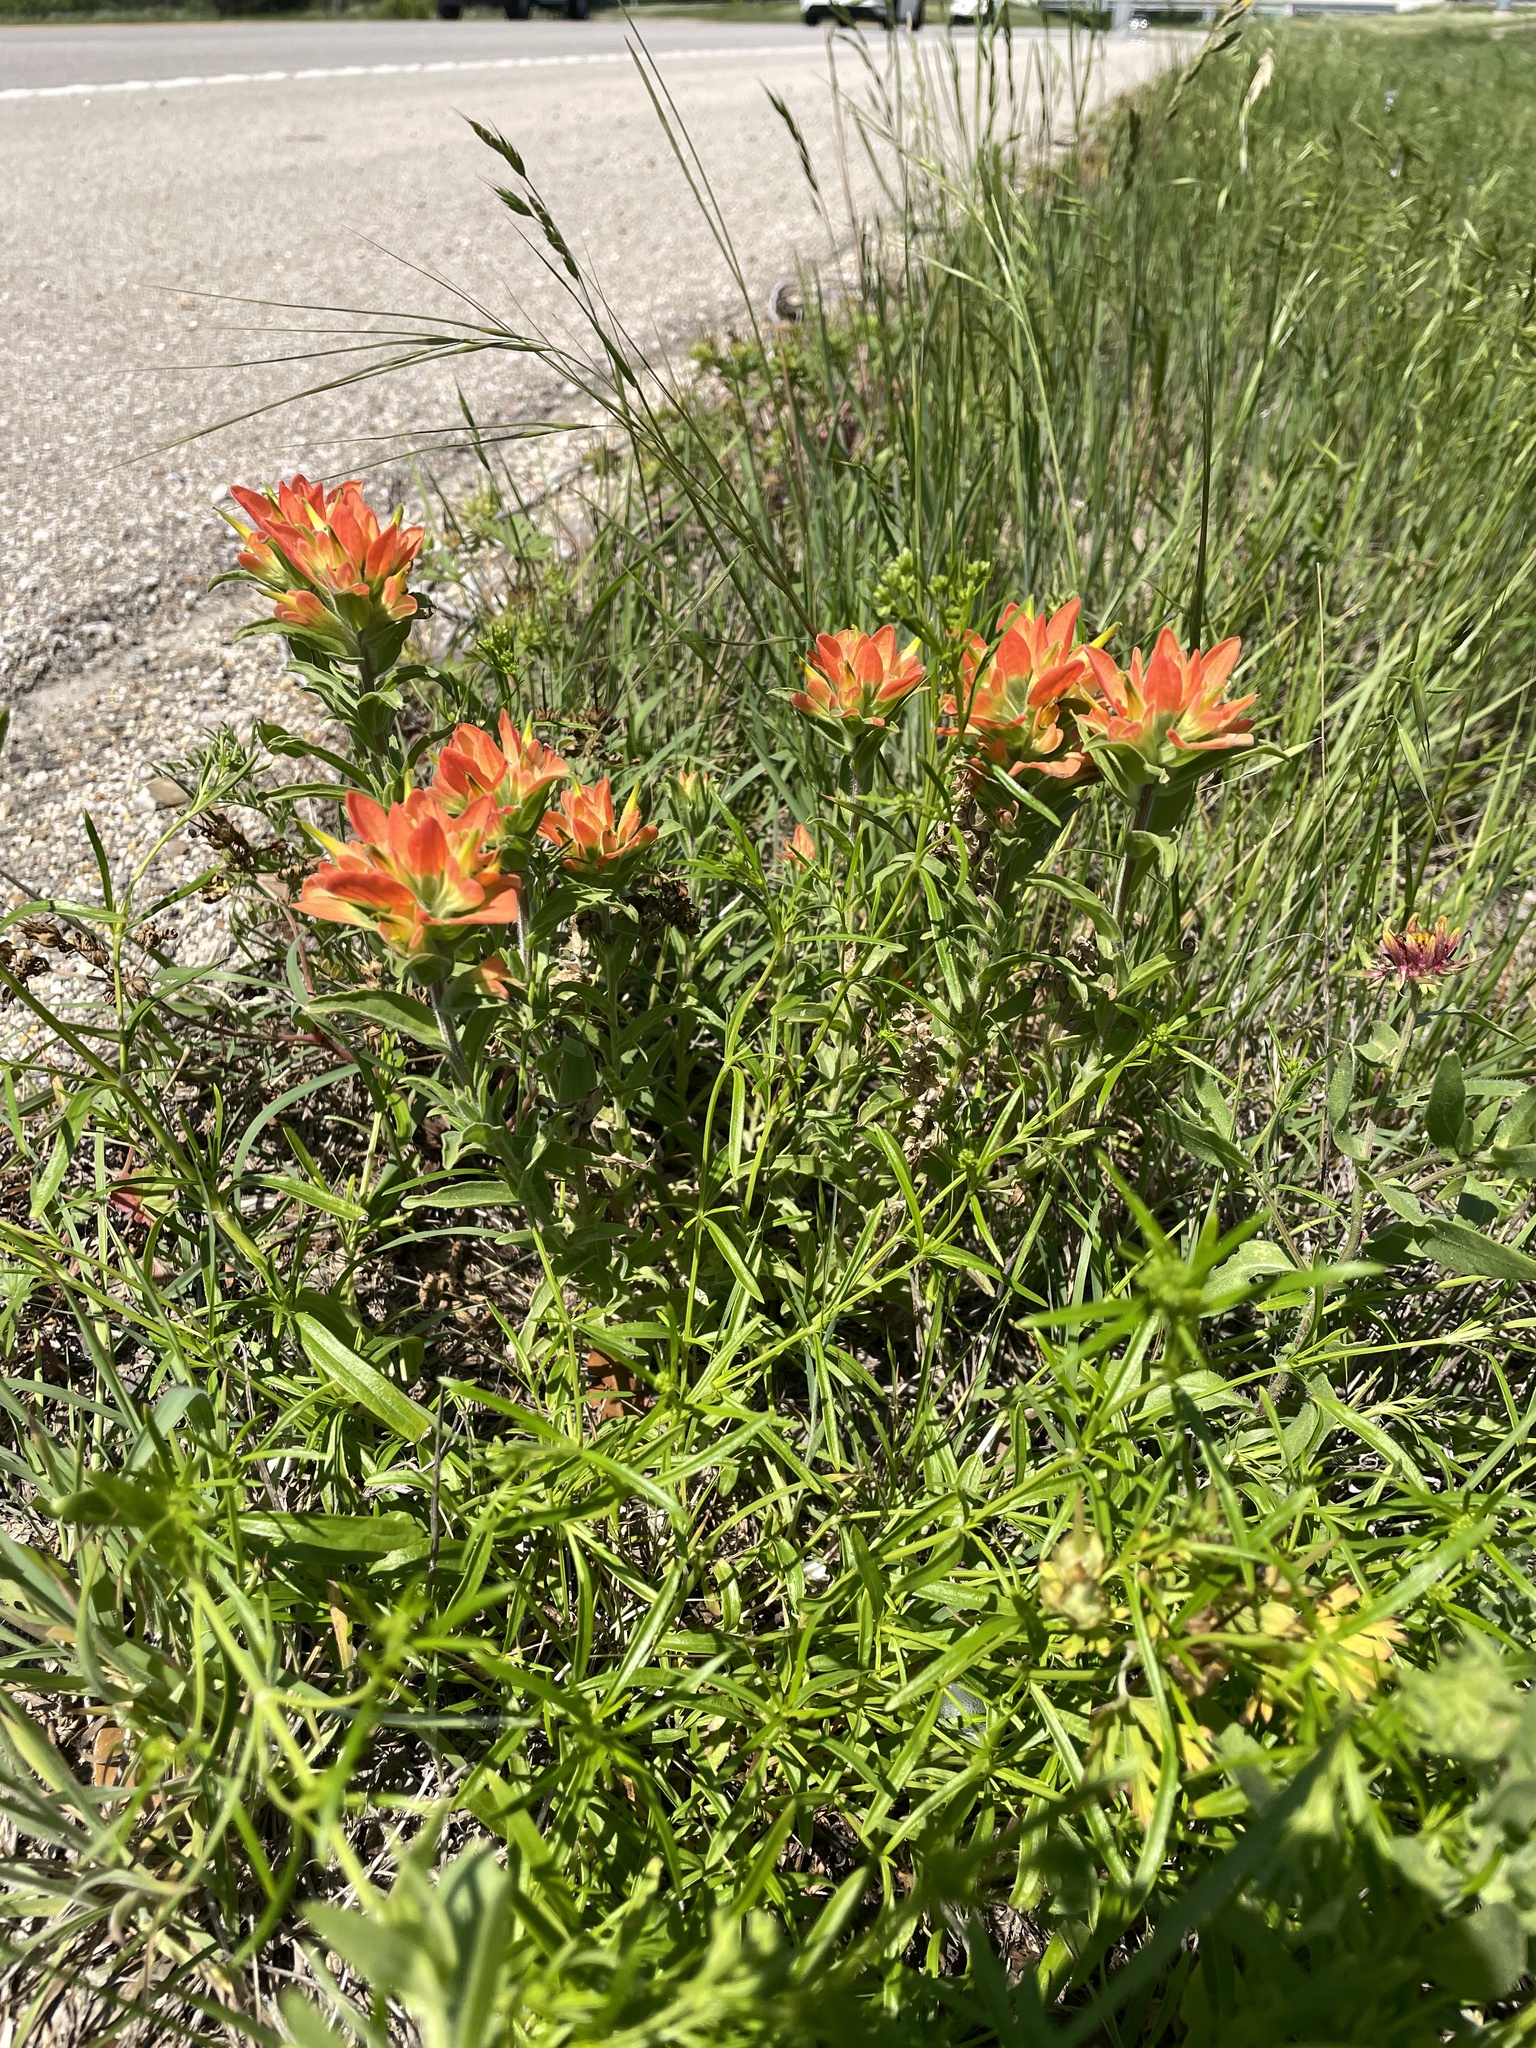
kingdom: Plantae
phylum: Tracheophyta
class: Magnoliopsida
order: Lamiales
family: Orobanchaceae
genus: Castilleja
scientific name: Castilleja lindheimeri
